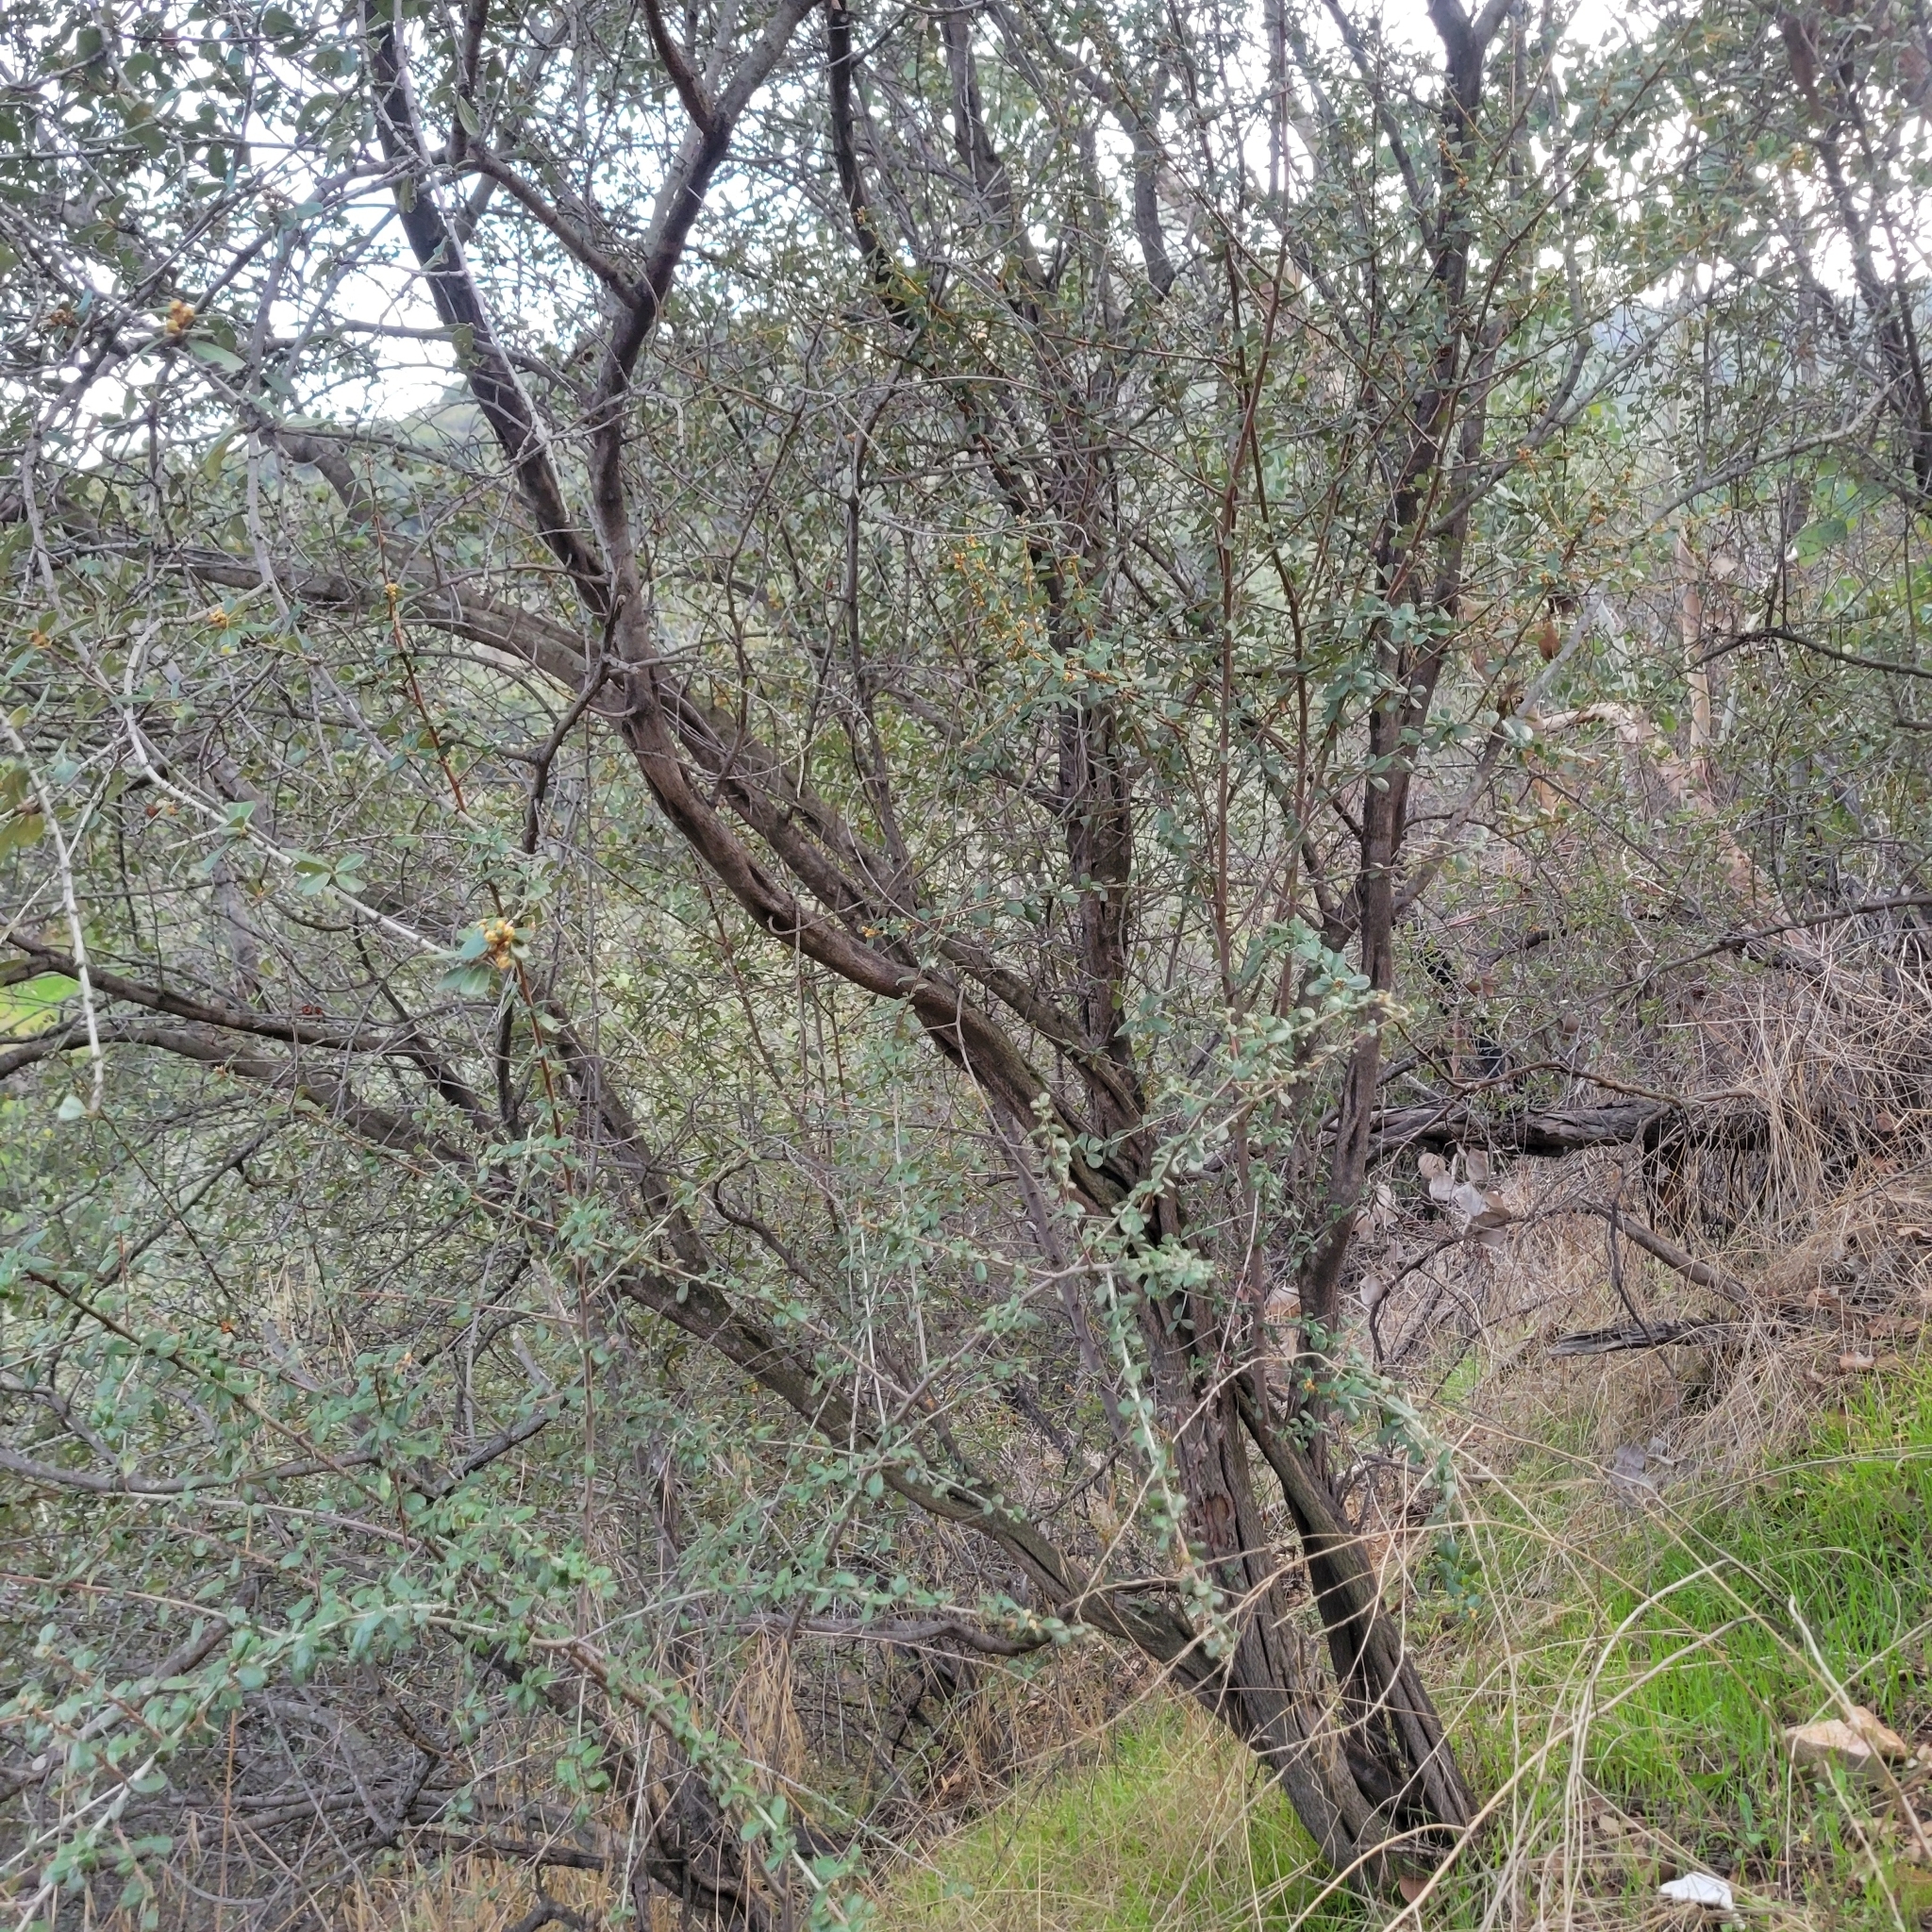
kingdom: Plantae
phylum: Tracheophyta
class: Magnoliopsida
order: Rosales
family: Rhamnaceae
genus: Ceanothus
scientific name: Ceanothus megacarpus
